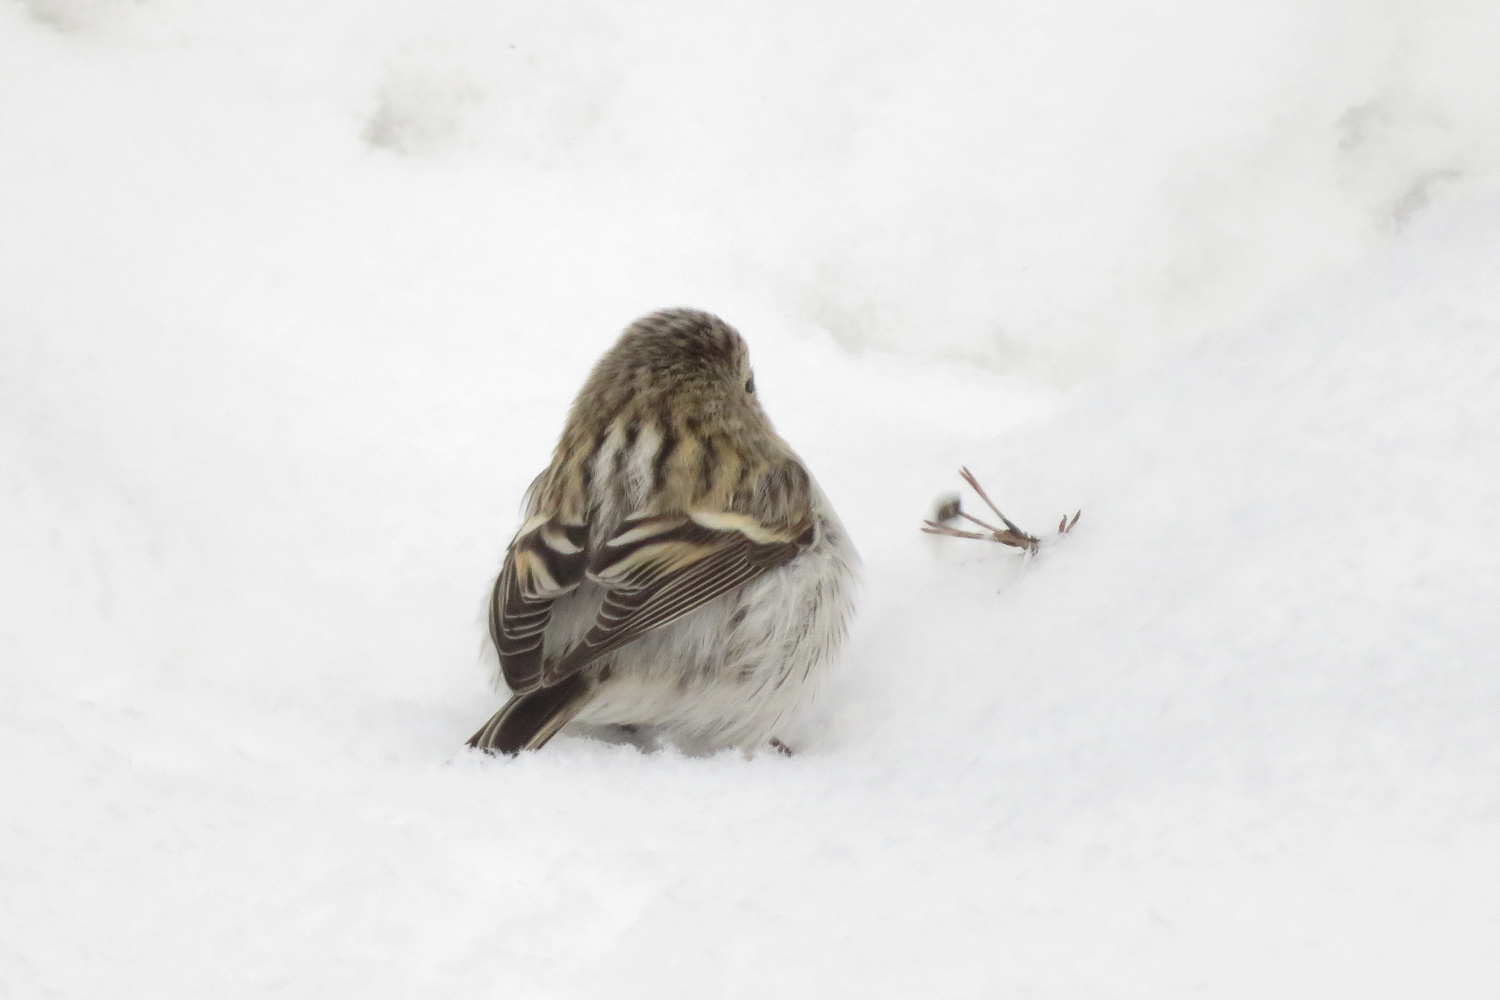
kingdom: Animalia
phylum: Chordata
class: Aves
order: Passeriformes
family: Fringillidae
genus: Acanthis
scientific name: Acanthis hornemanni
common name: Arctic redpoll
